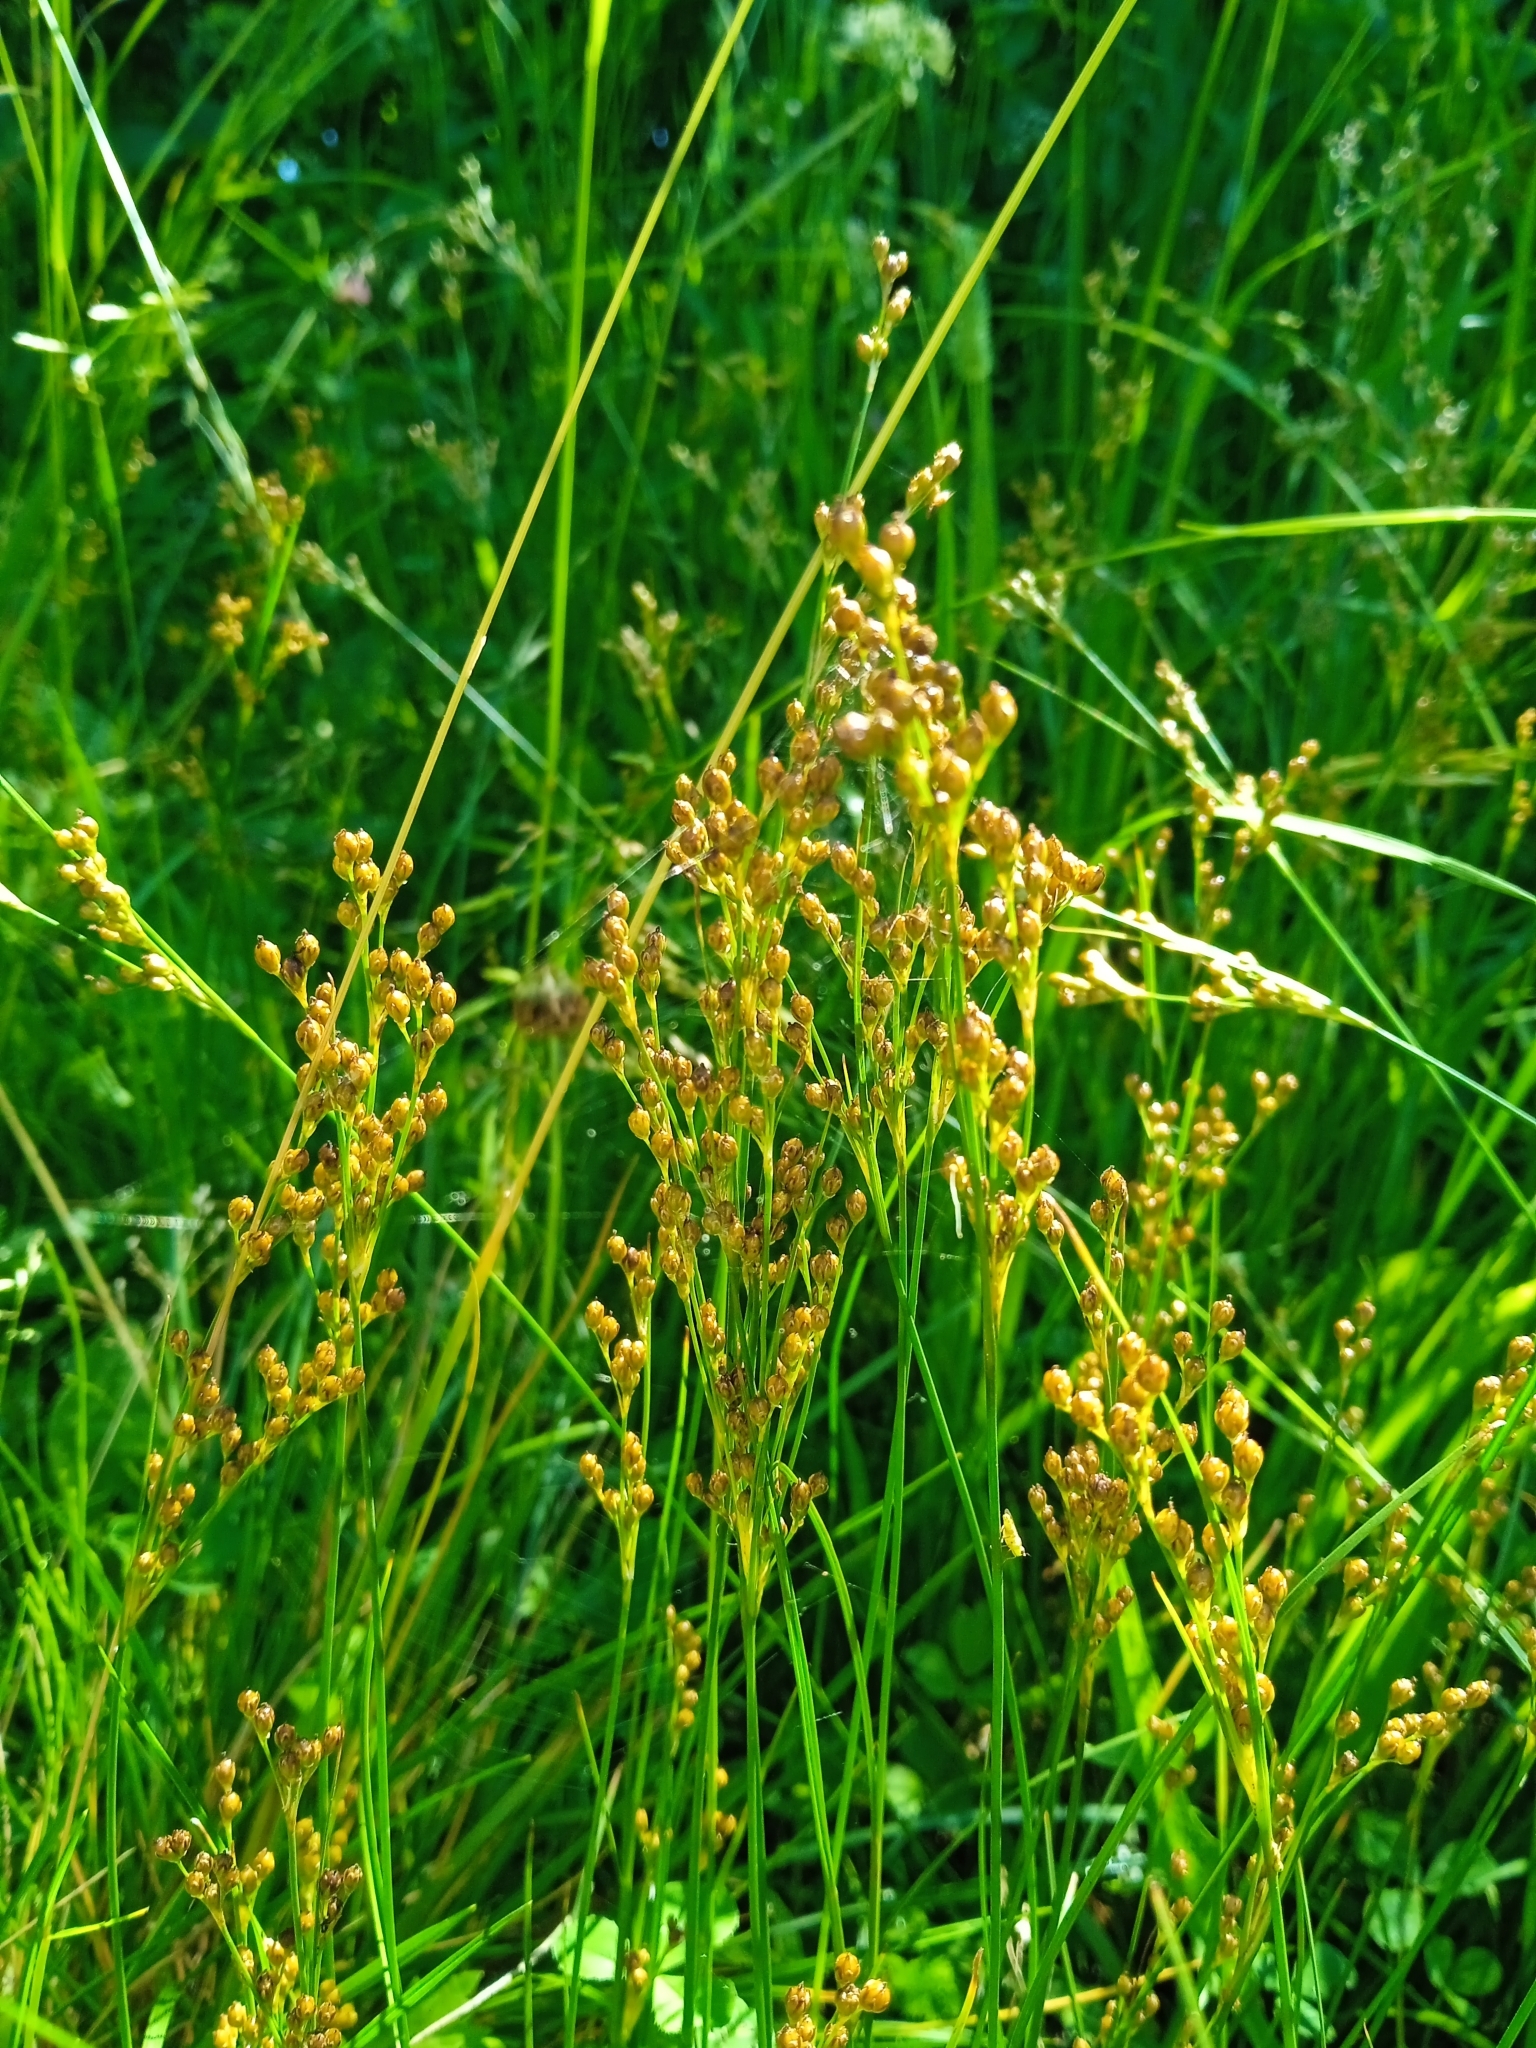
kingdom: Plantae
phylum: Tracheophyta
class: Liliopsida
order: Poales
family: Juncaceae
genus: Juncus
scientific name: Juncus compressus
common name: Round-fruited rush
